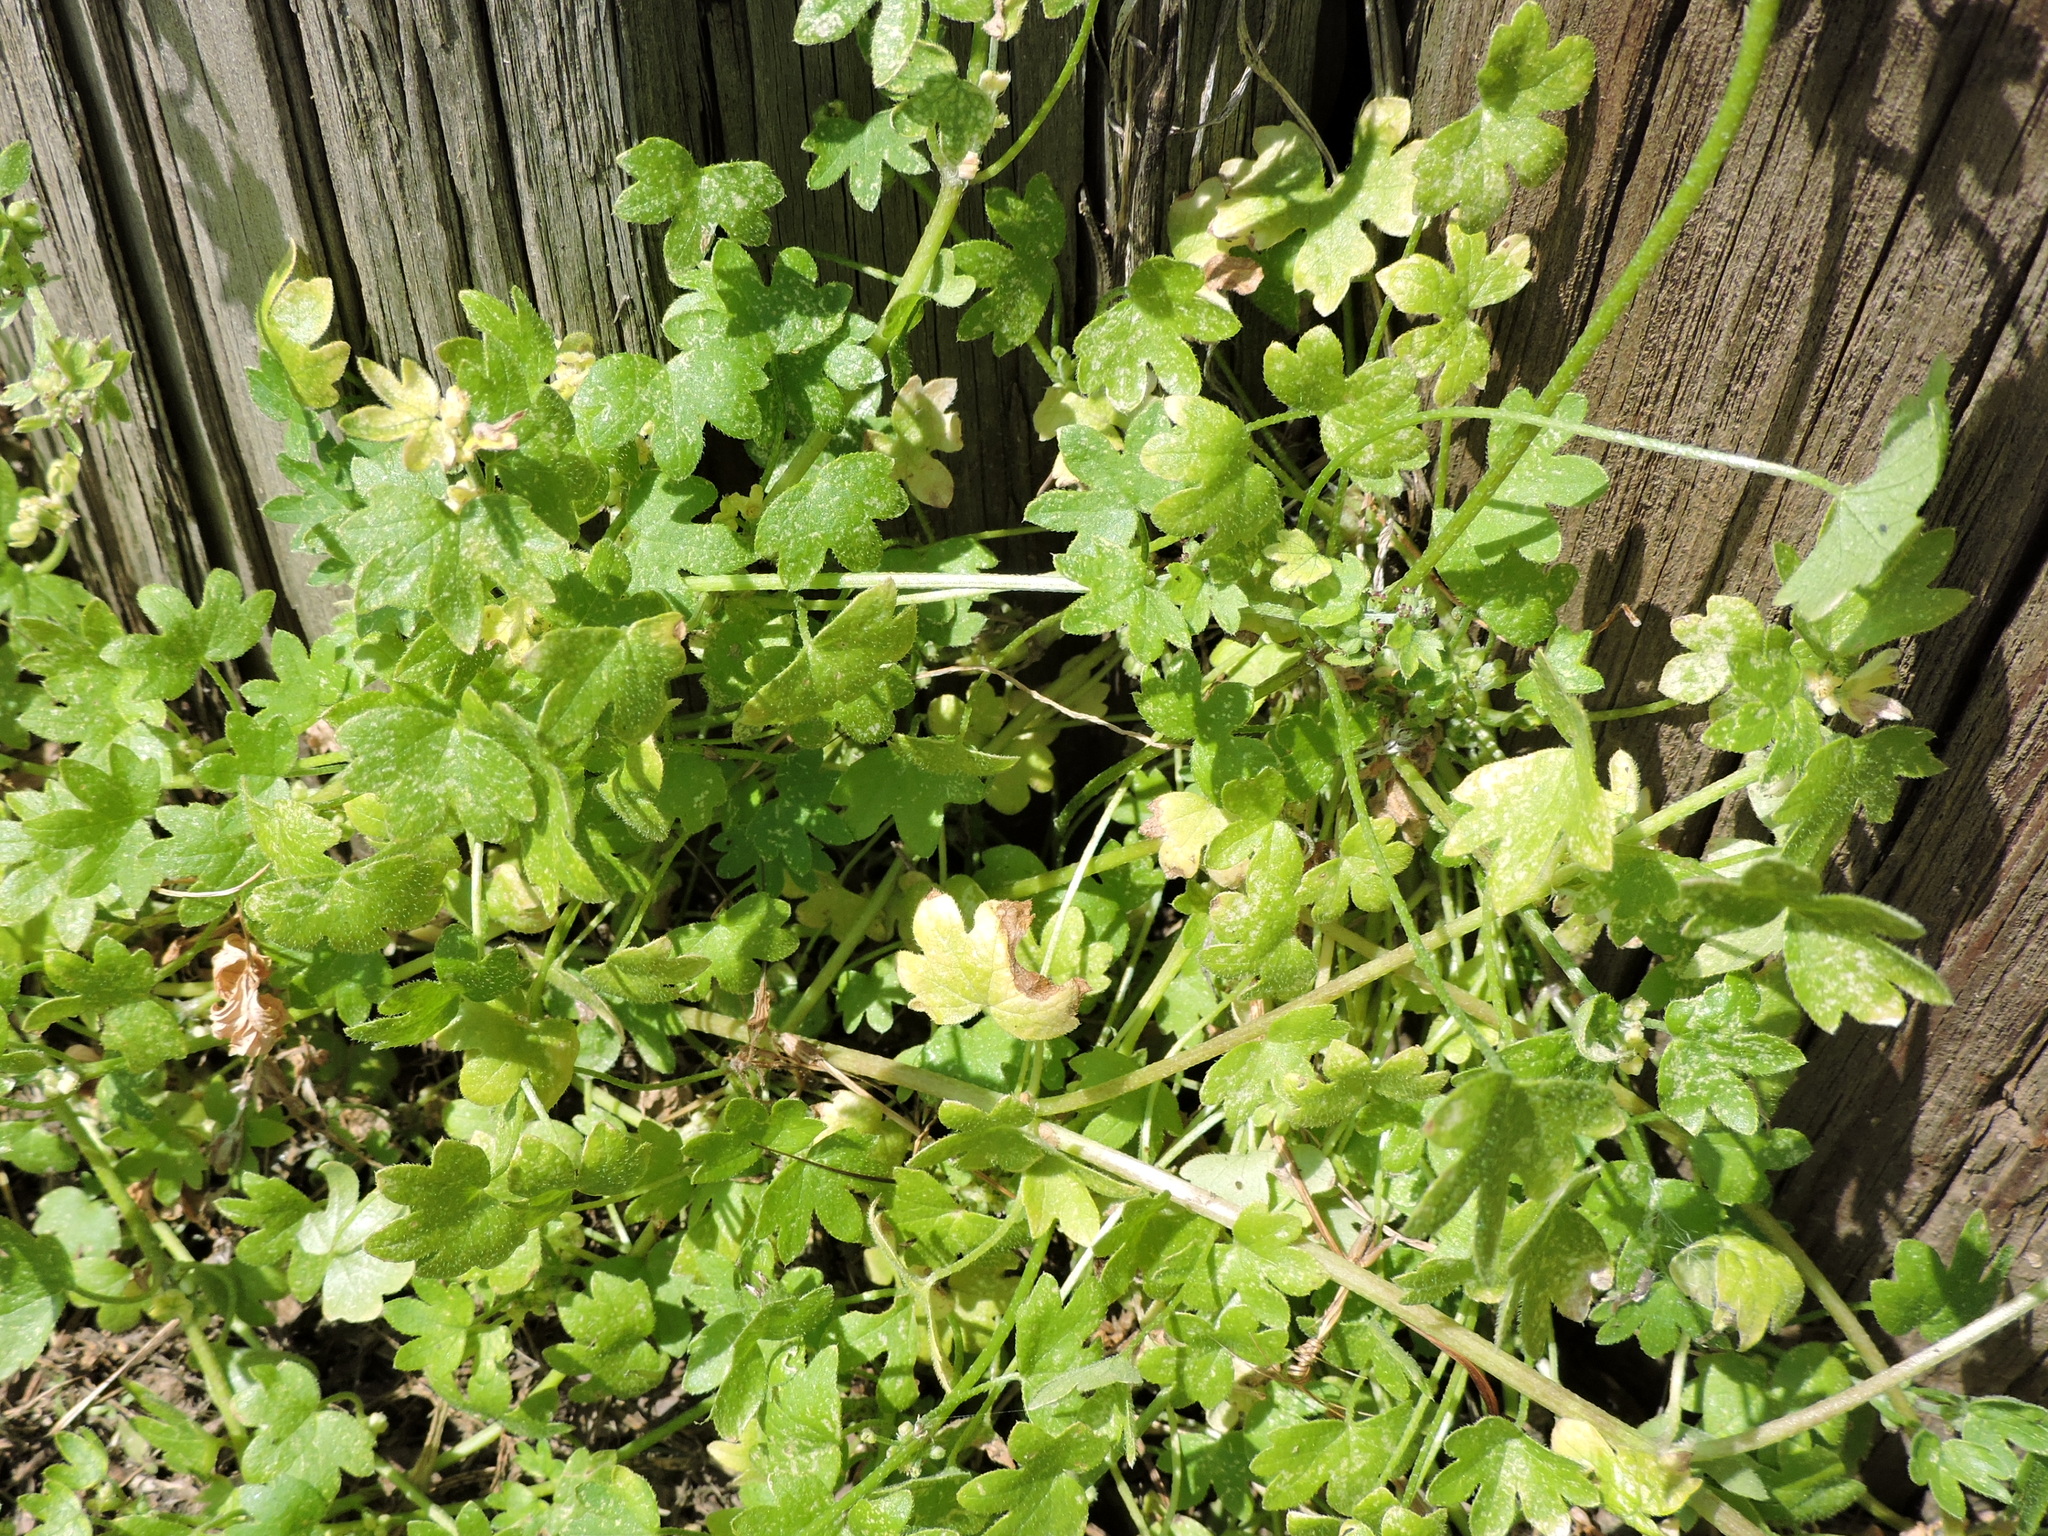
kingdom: Plantae
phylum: Tracheophyta
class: Magnoliopsida
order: Apiales
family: Apiaceae
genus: Bowlesia
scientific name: Bowlesia incana
